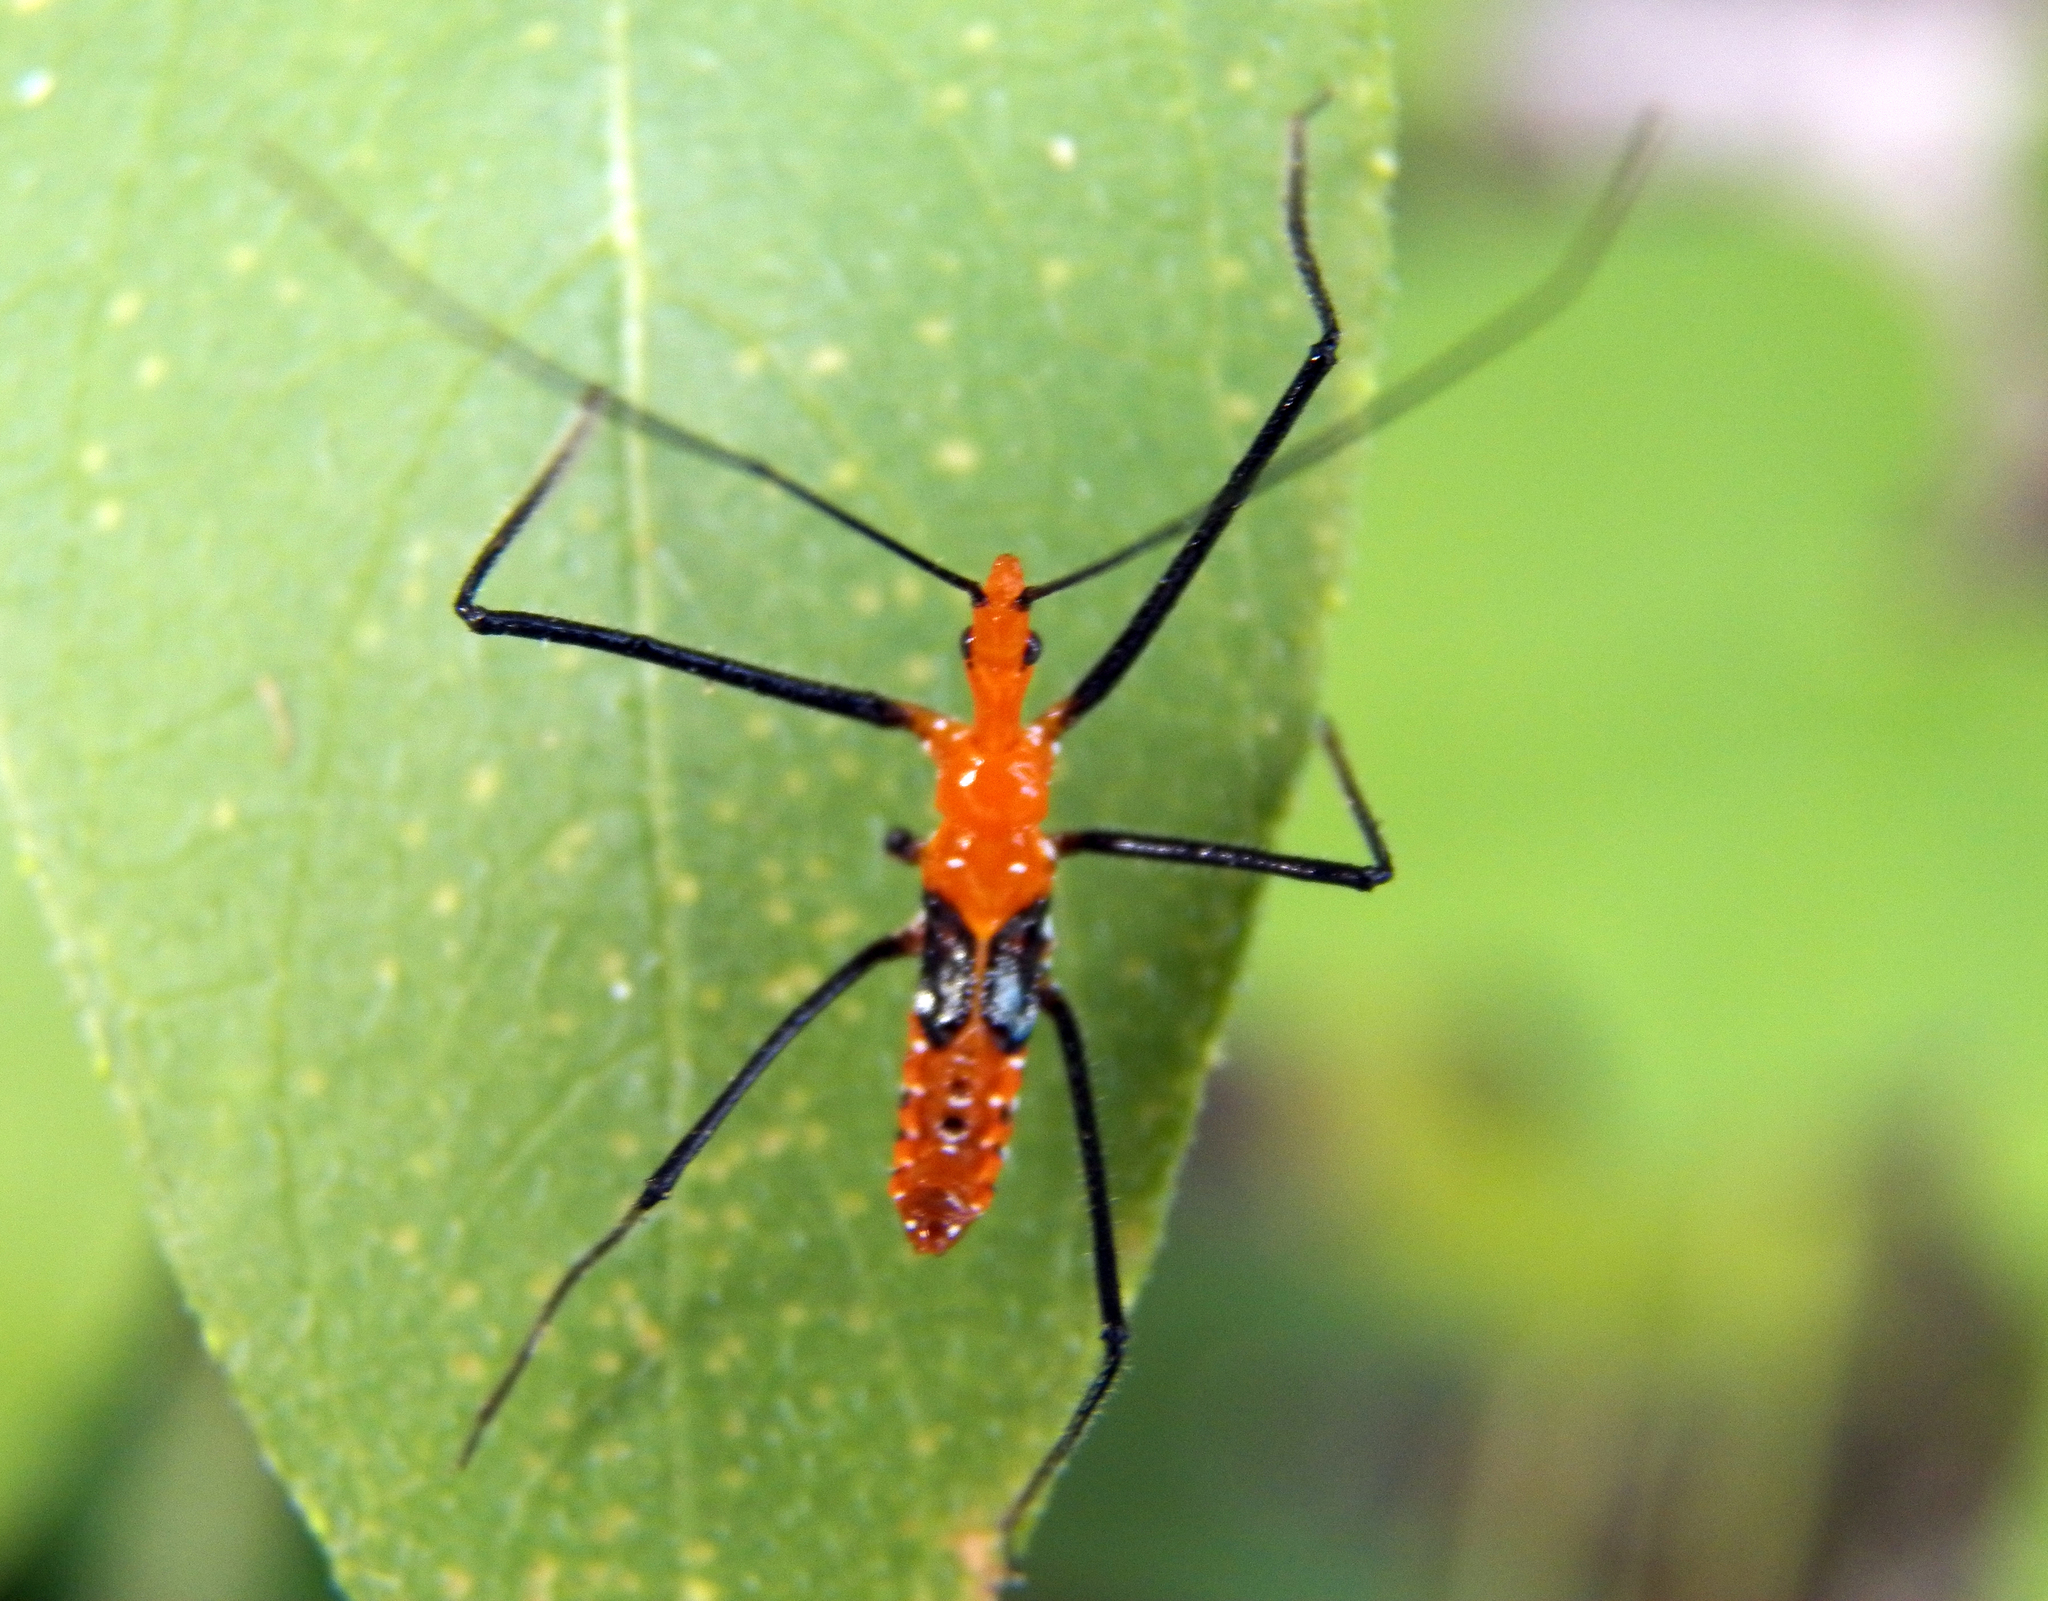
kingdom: Animalia
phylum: Arthropoda
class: Insecta
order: Hemiptera
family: Reduviidae
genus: Zelus
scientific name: Zelus longipes
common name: Milkweed assassin bug
